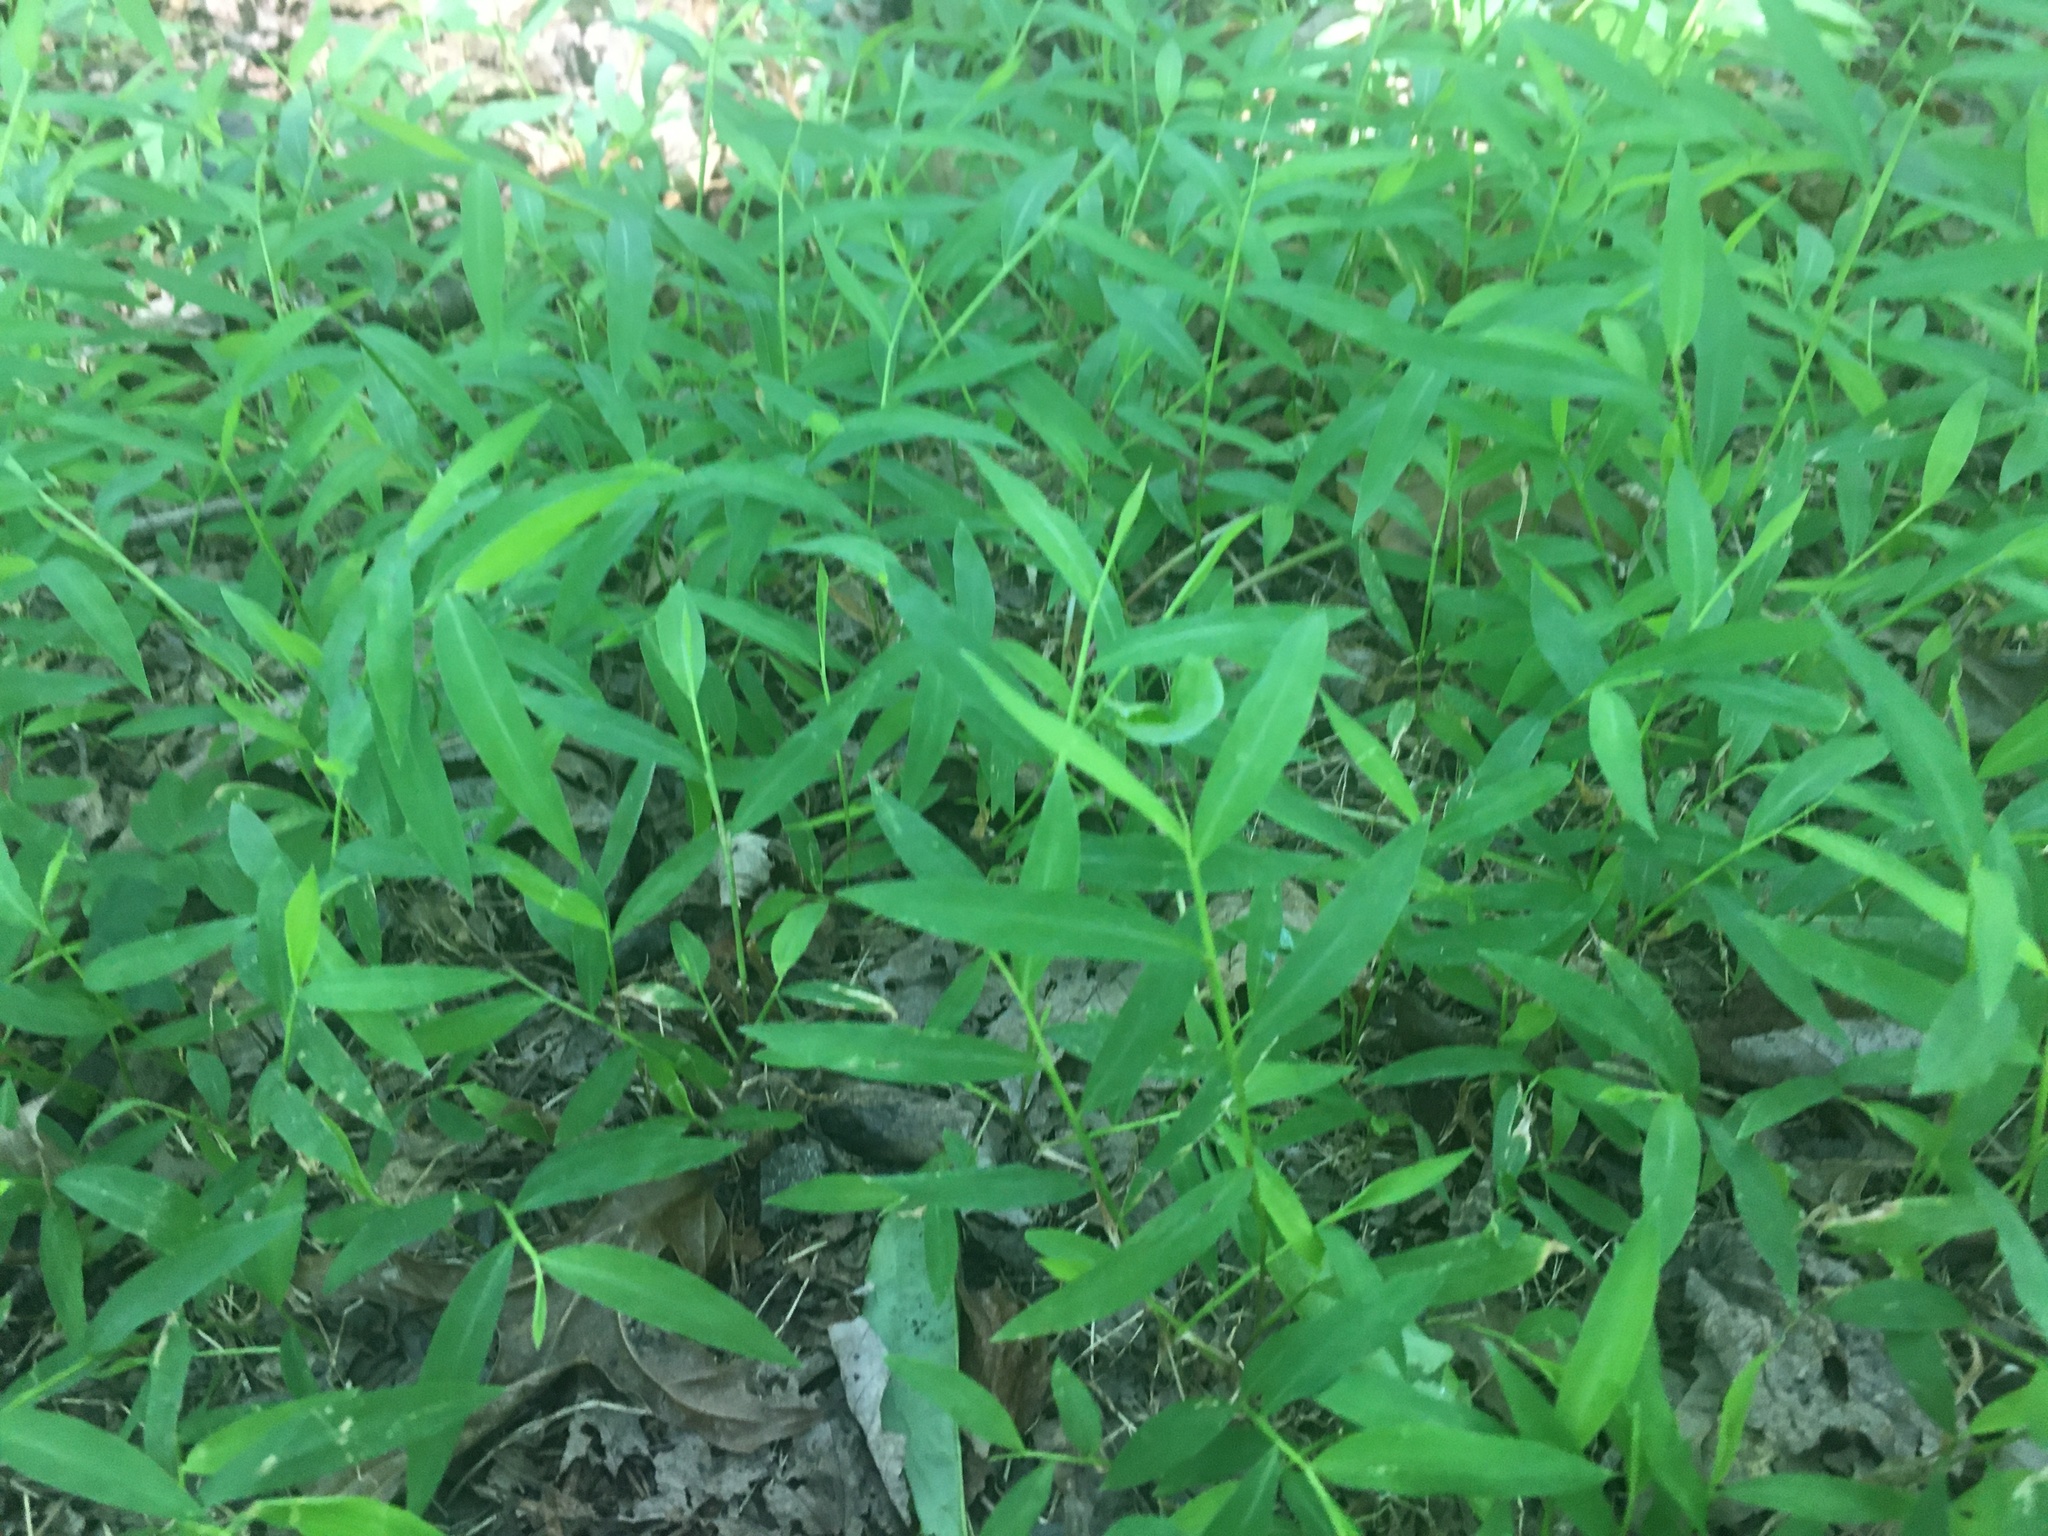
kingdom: Plantae
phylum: Tracheophyta
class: Liliopsida
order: Poales
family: Poaceae
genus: Microstegium
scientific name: Microstegium vimineum
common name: Japanese stiltgrass
